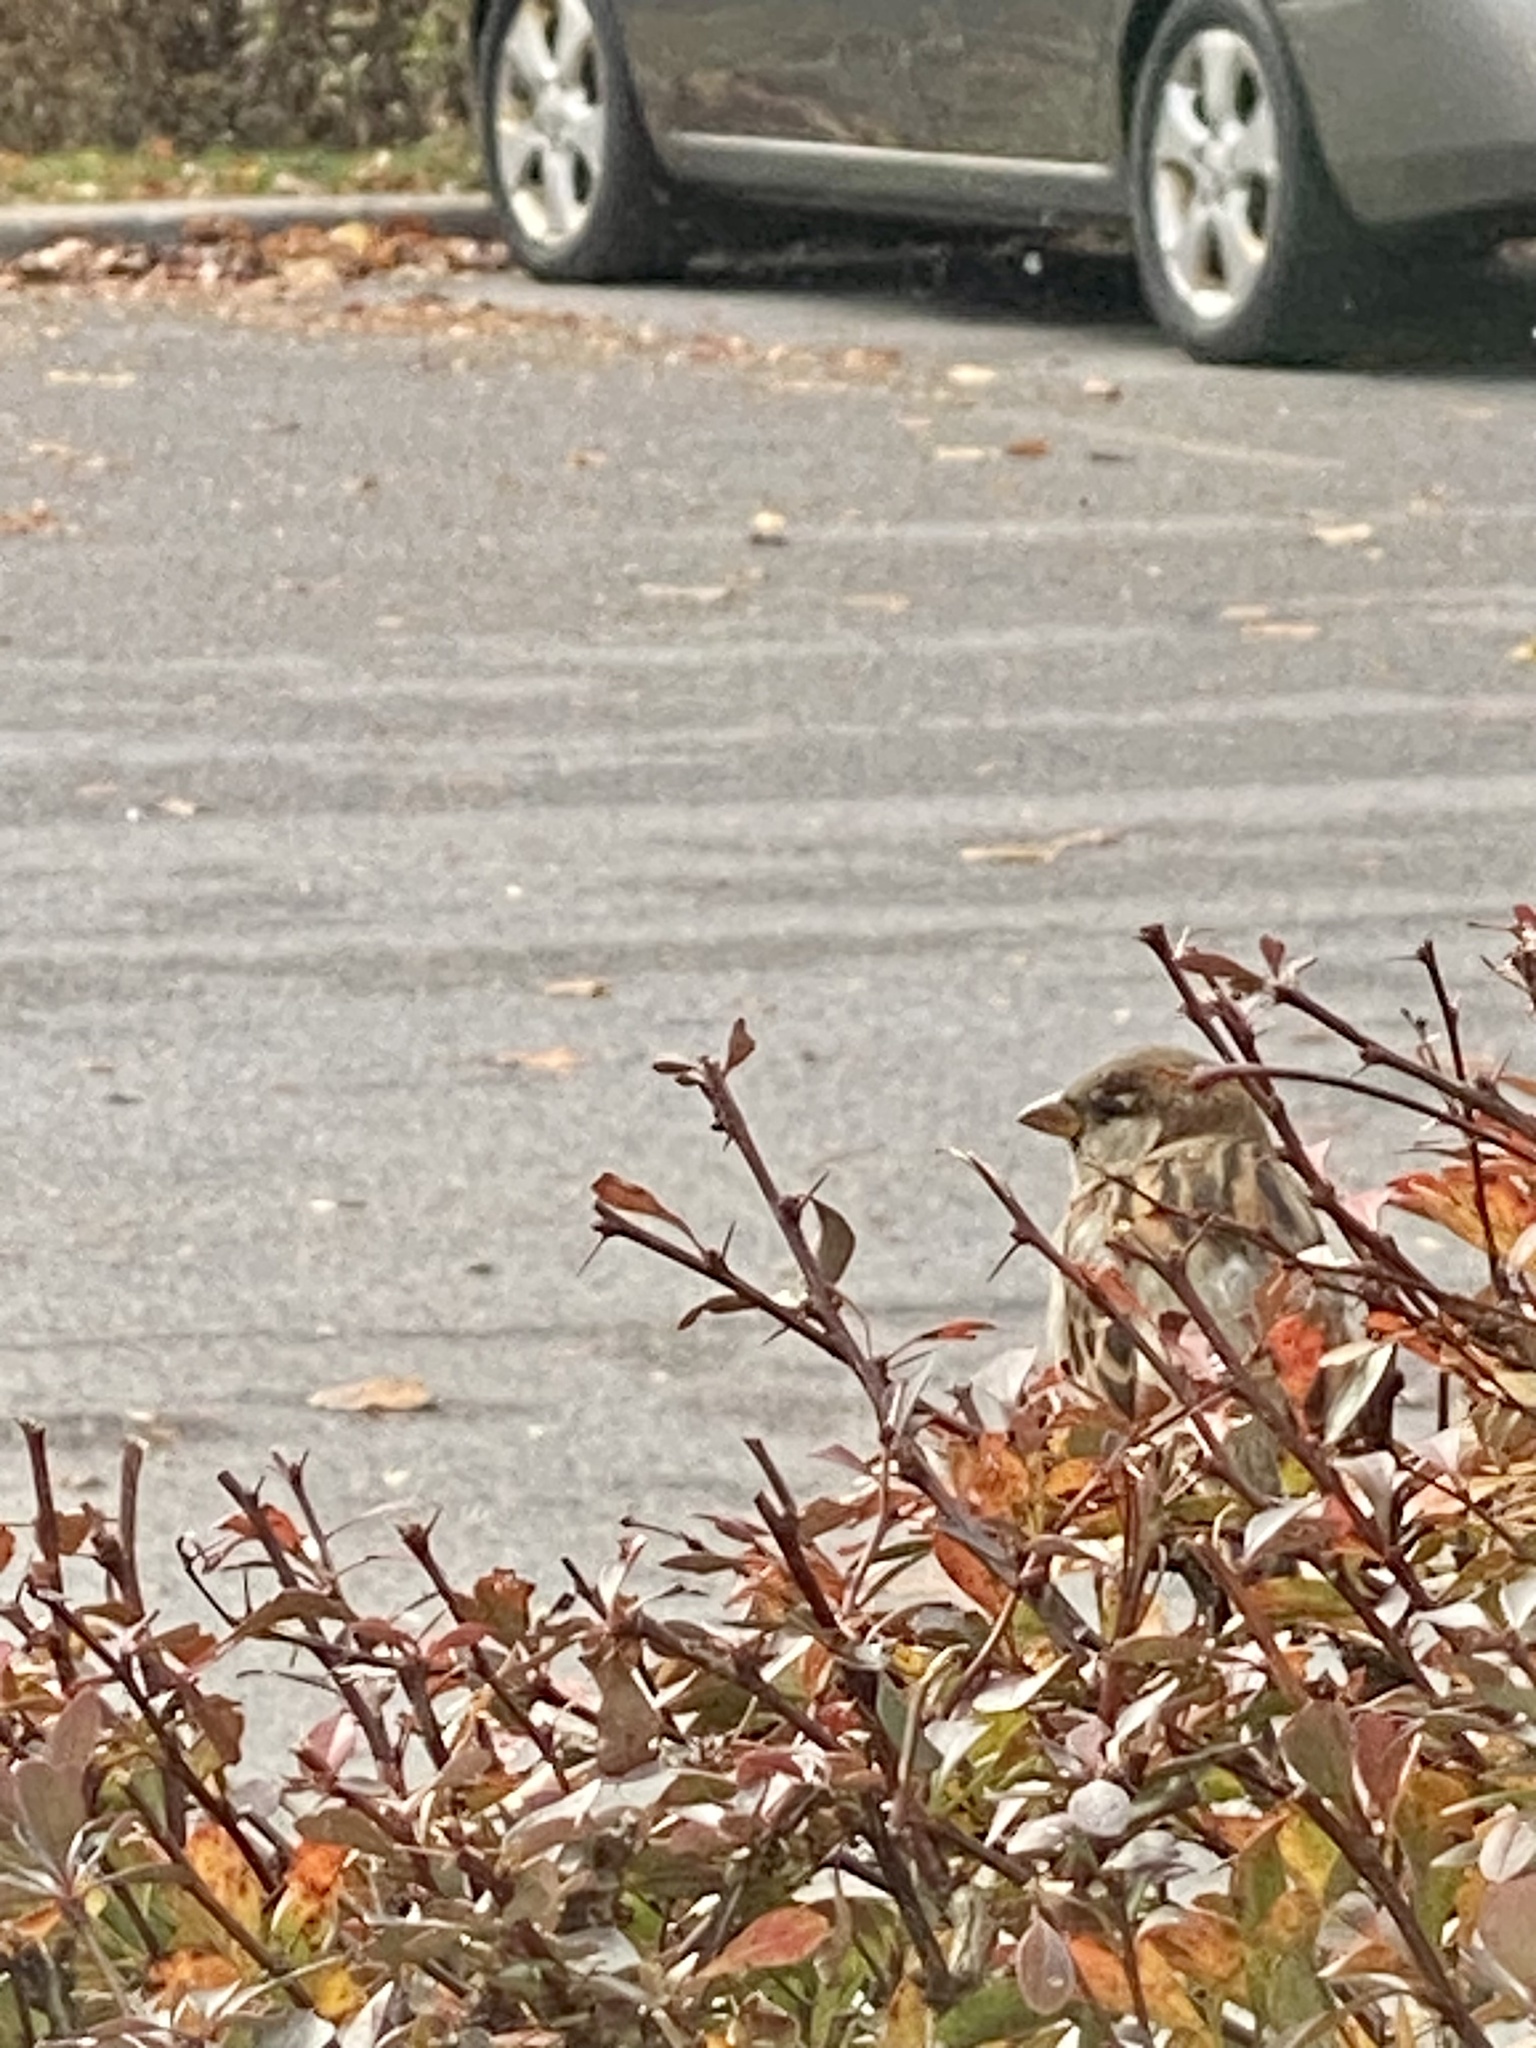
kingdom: Animalia
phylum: Chordata
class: Aves
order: Passeriformes
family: Passeridae
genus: Passer
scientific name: Passer domesticus
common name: House sparrow
